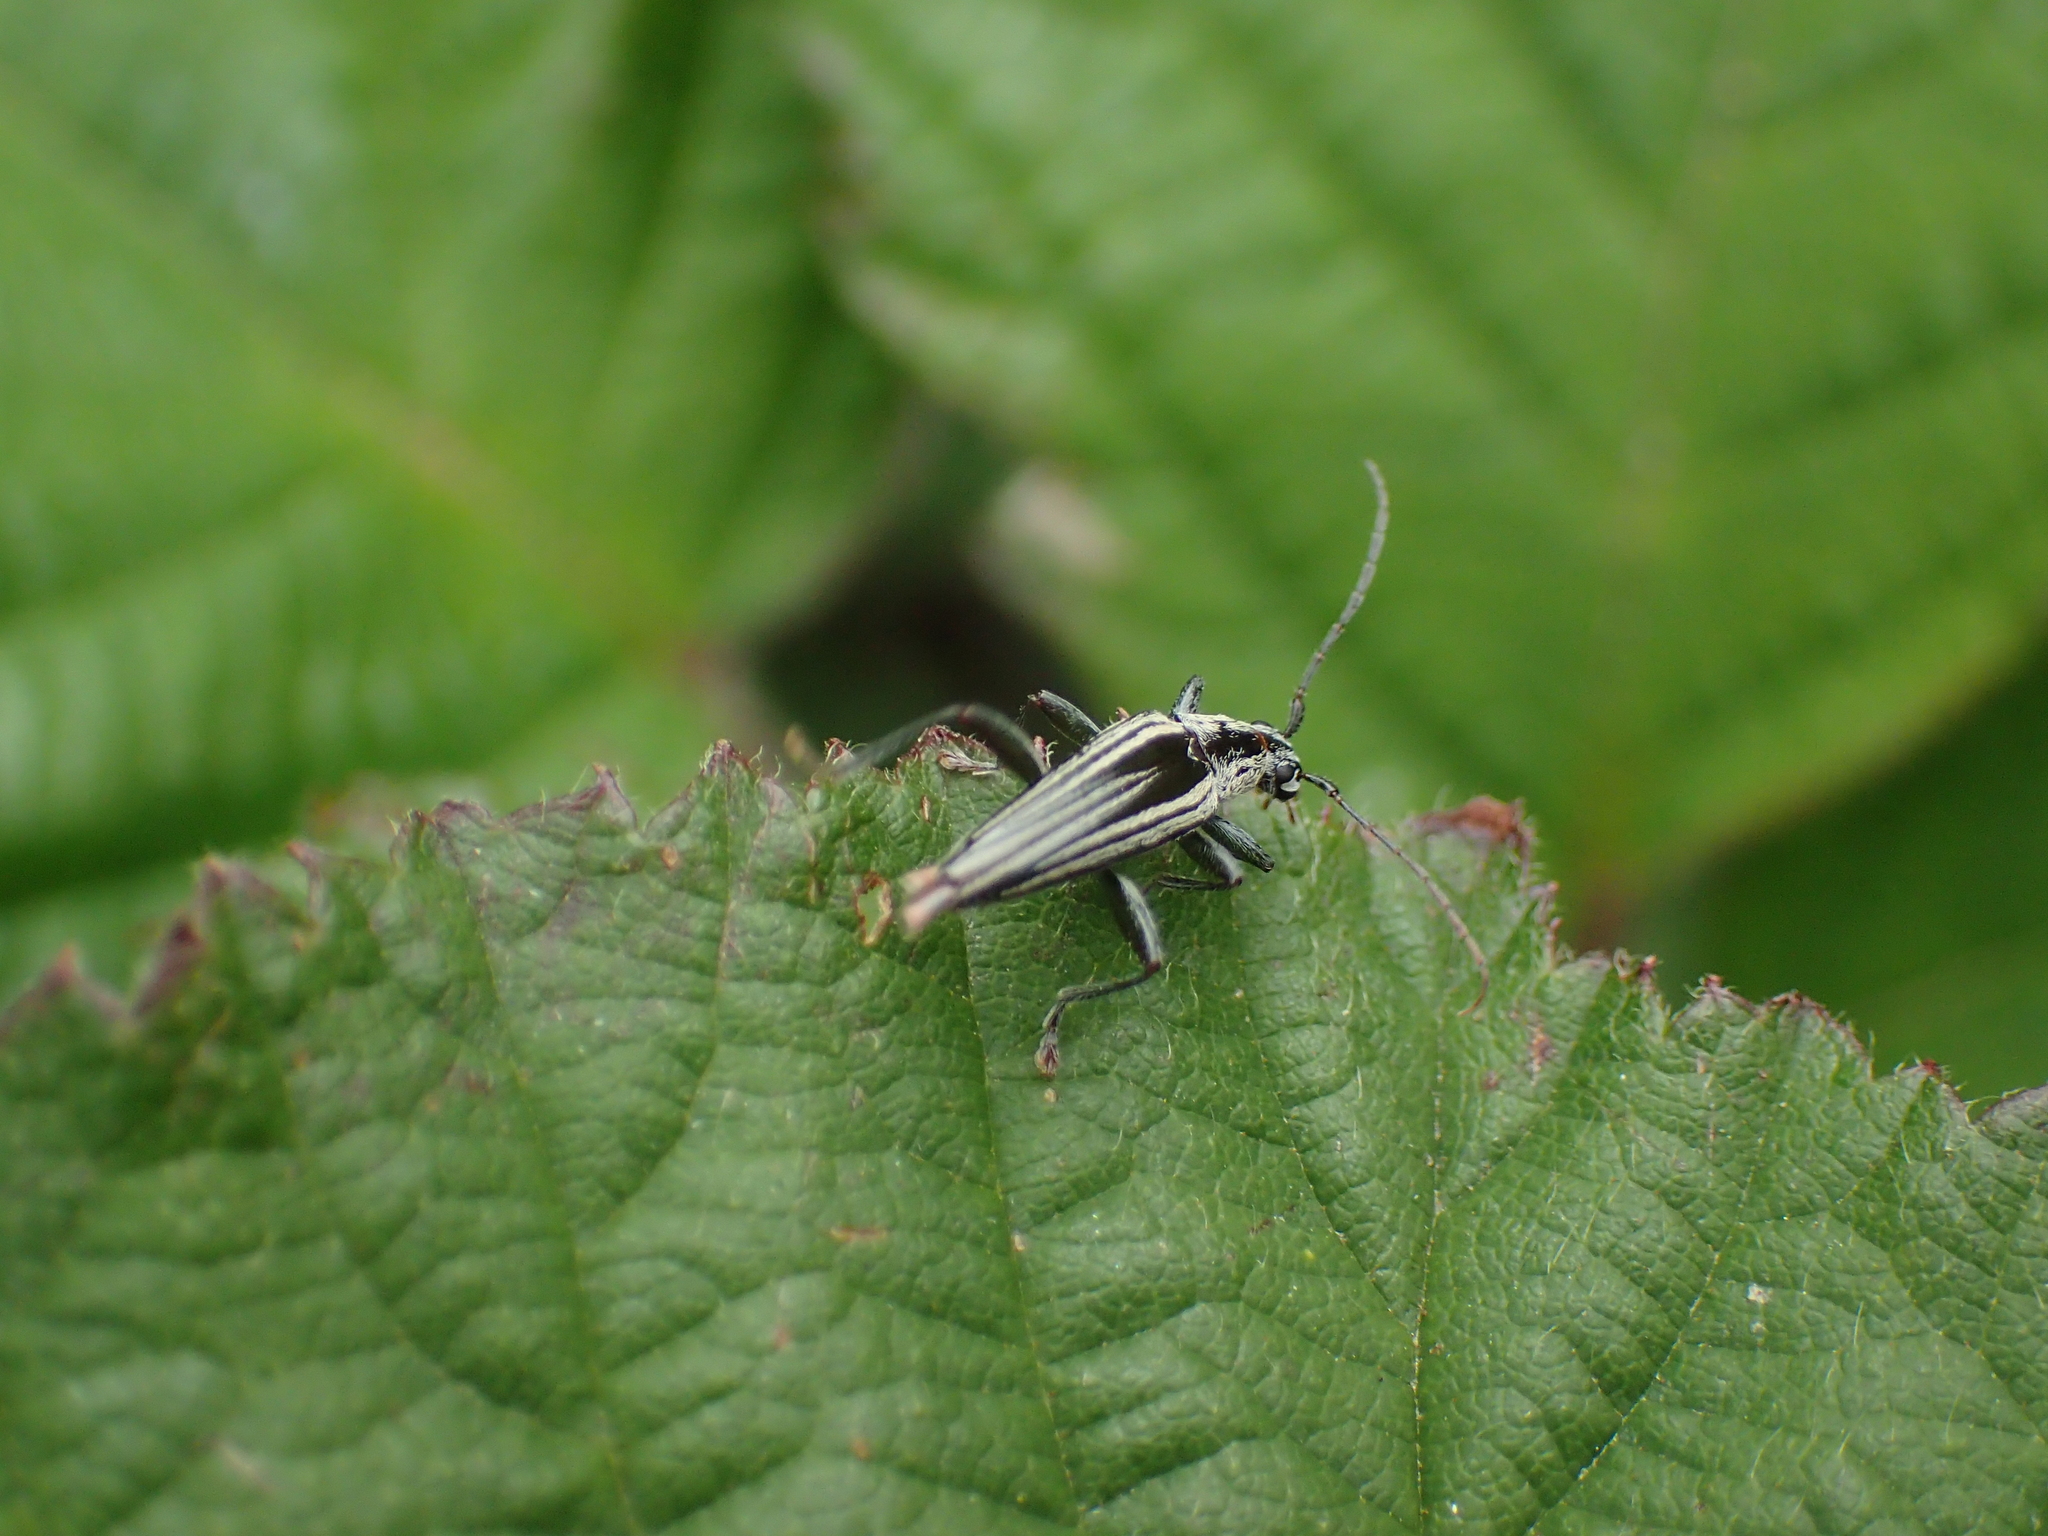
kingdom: Animalia
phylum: Arthropoda
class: Insecta
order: Coleoptera
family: Cerambycidae
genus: Coptomma
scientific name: Coptomma sulcatum
